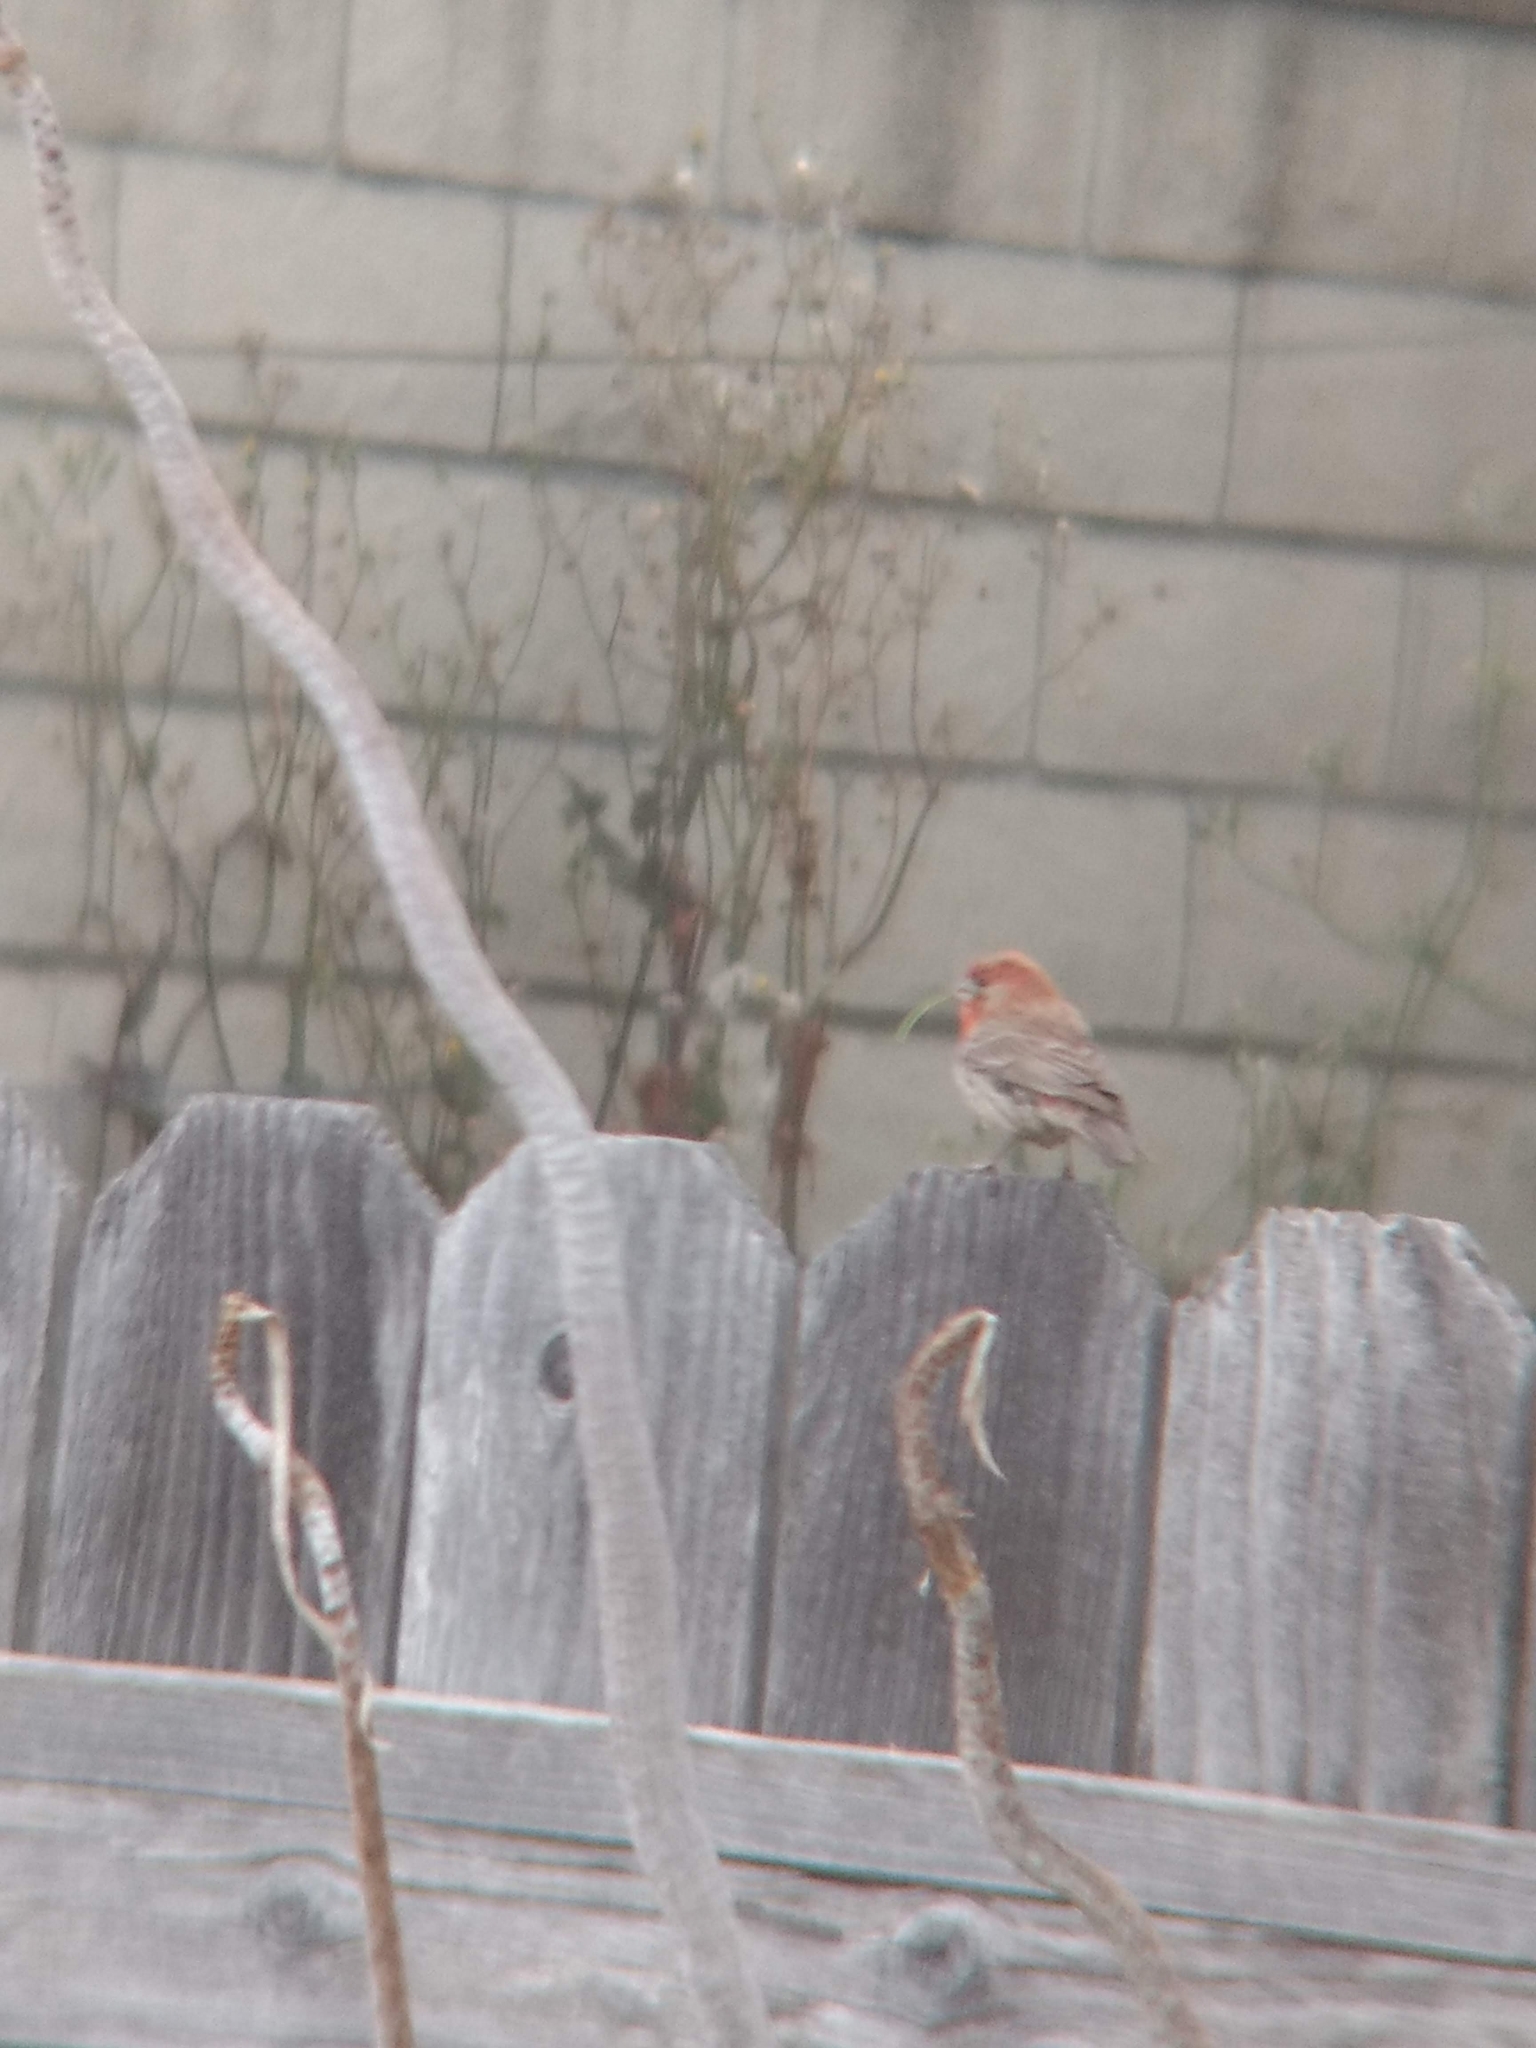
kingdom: Animalia
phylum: Chordata
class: Aves
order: Passeriformes
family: Fringillidae
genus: Haemorhous
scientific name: Haemorhous mexicanus
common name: House finch
